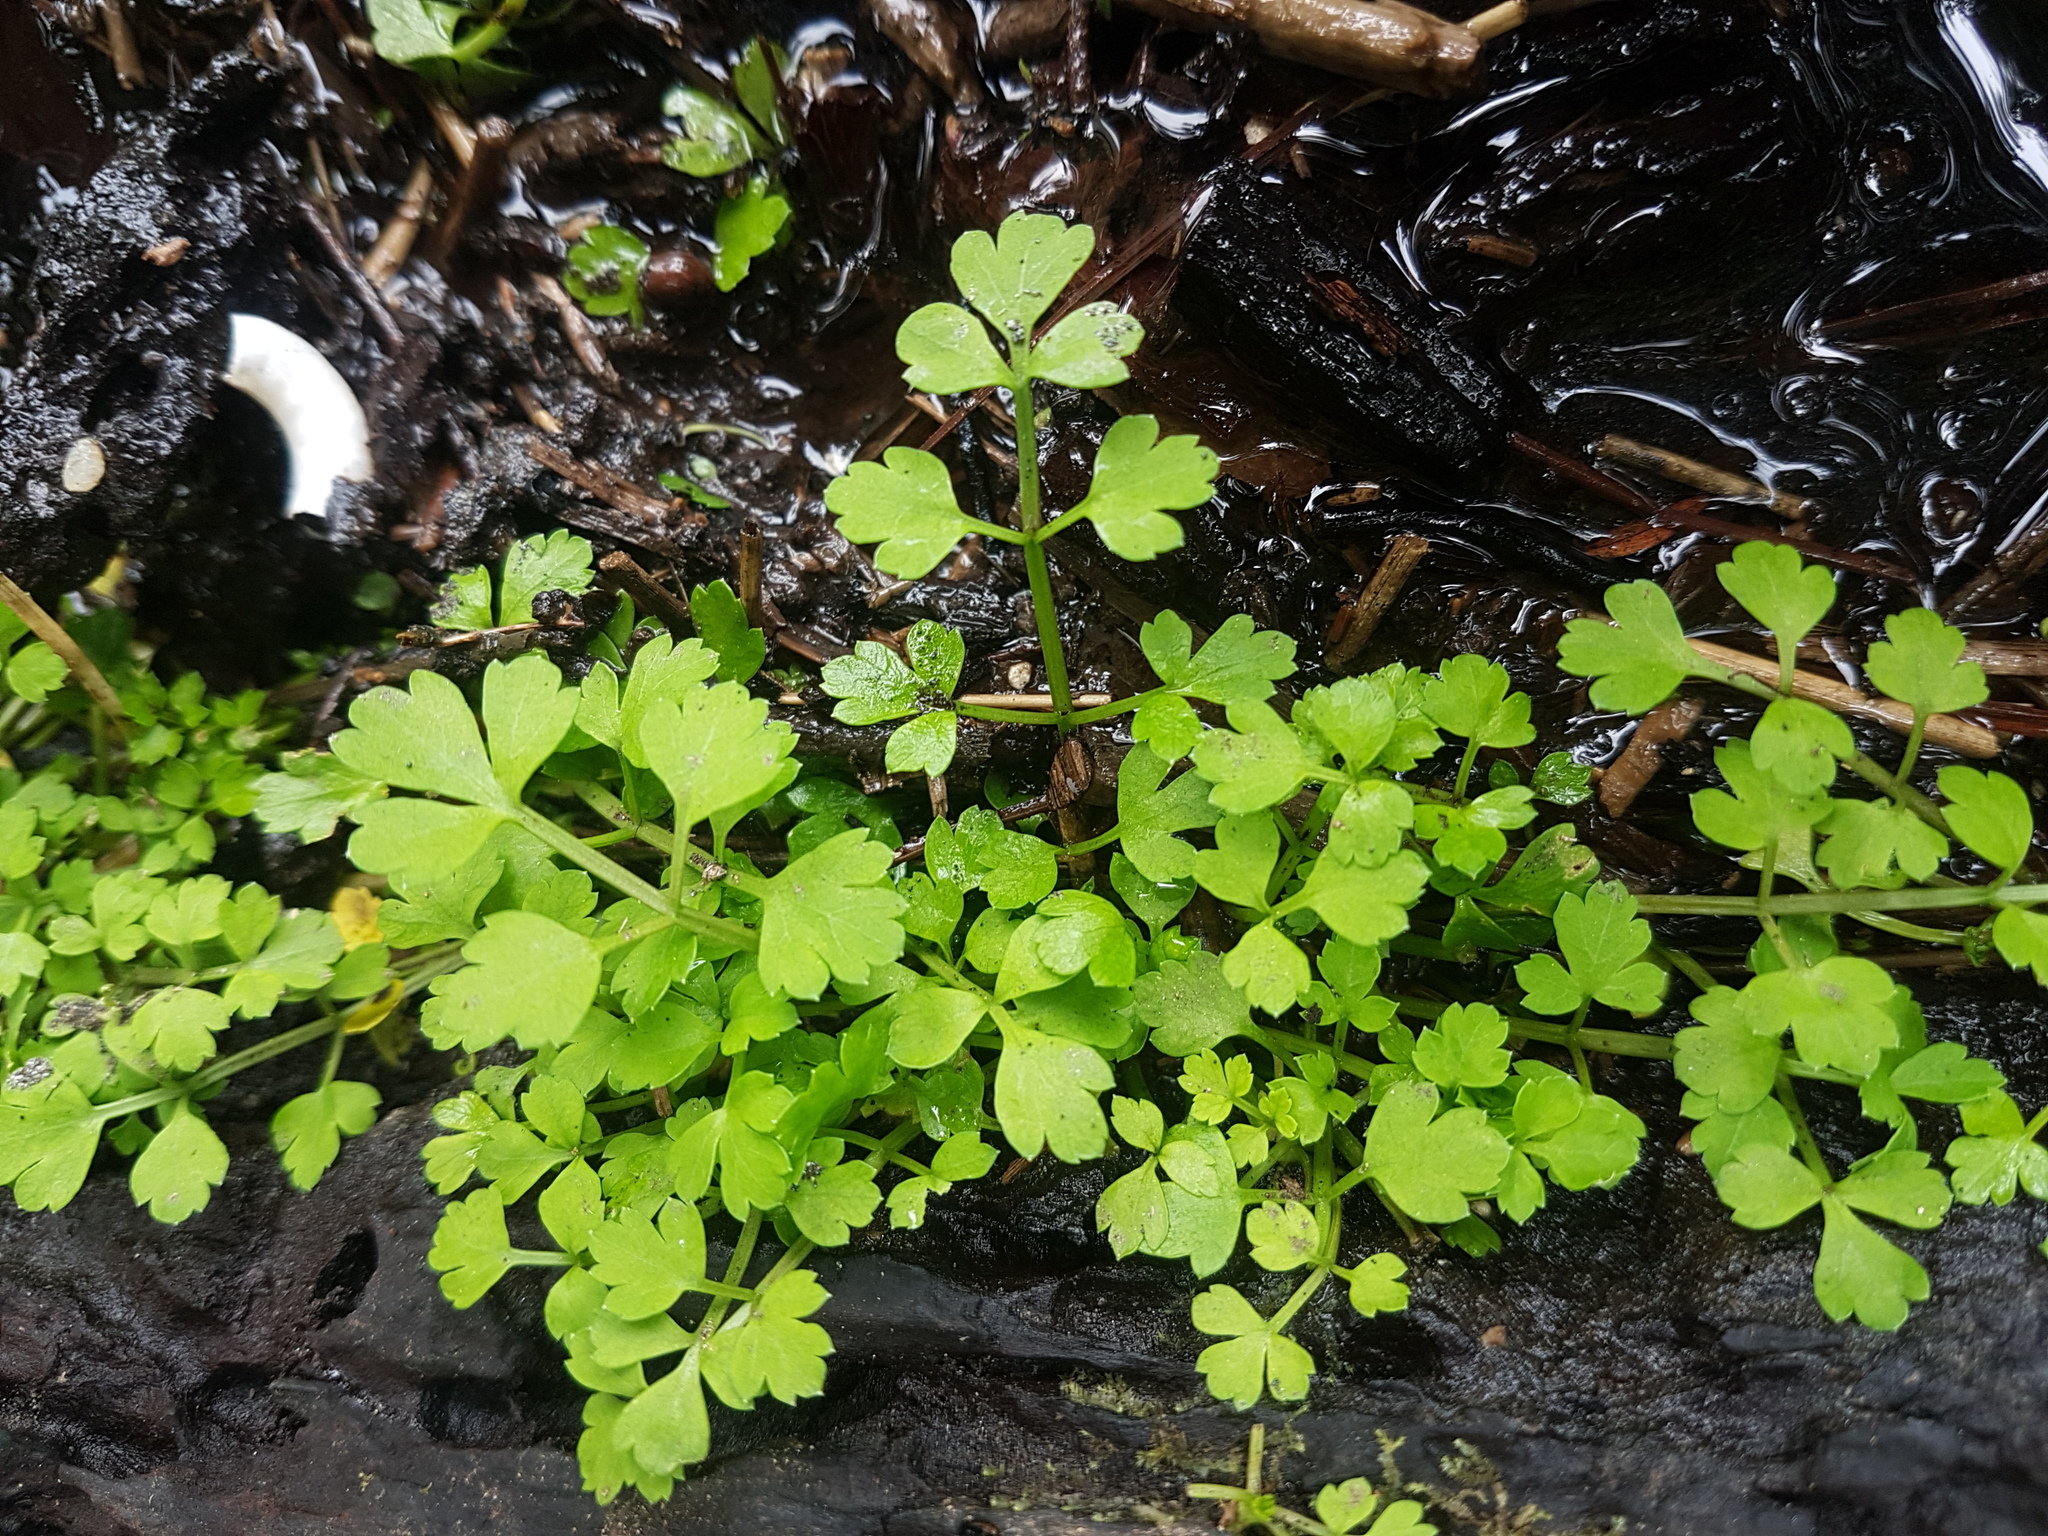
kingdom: Plantae
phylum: Tracheophyta
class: Magnoliopsida
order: Apiales
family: Apiaceae
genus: Apium
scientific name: Apium prostratum
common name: Prostrate marshwort
